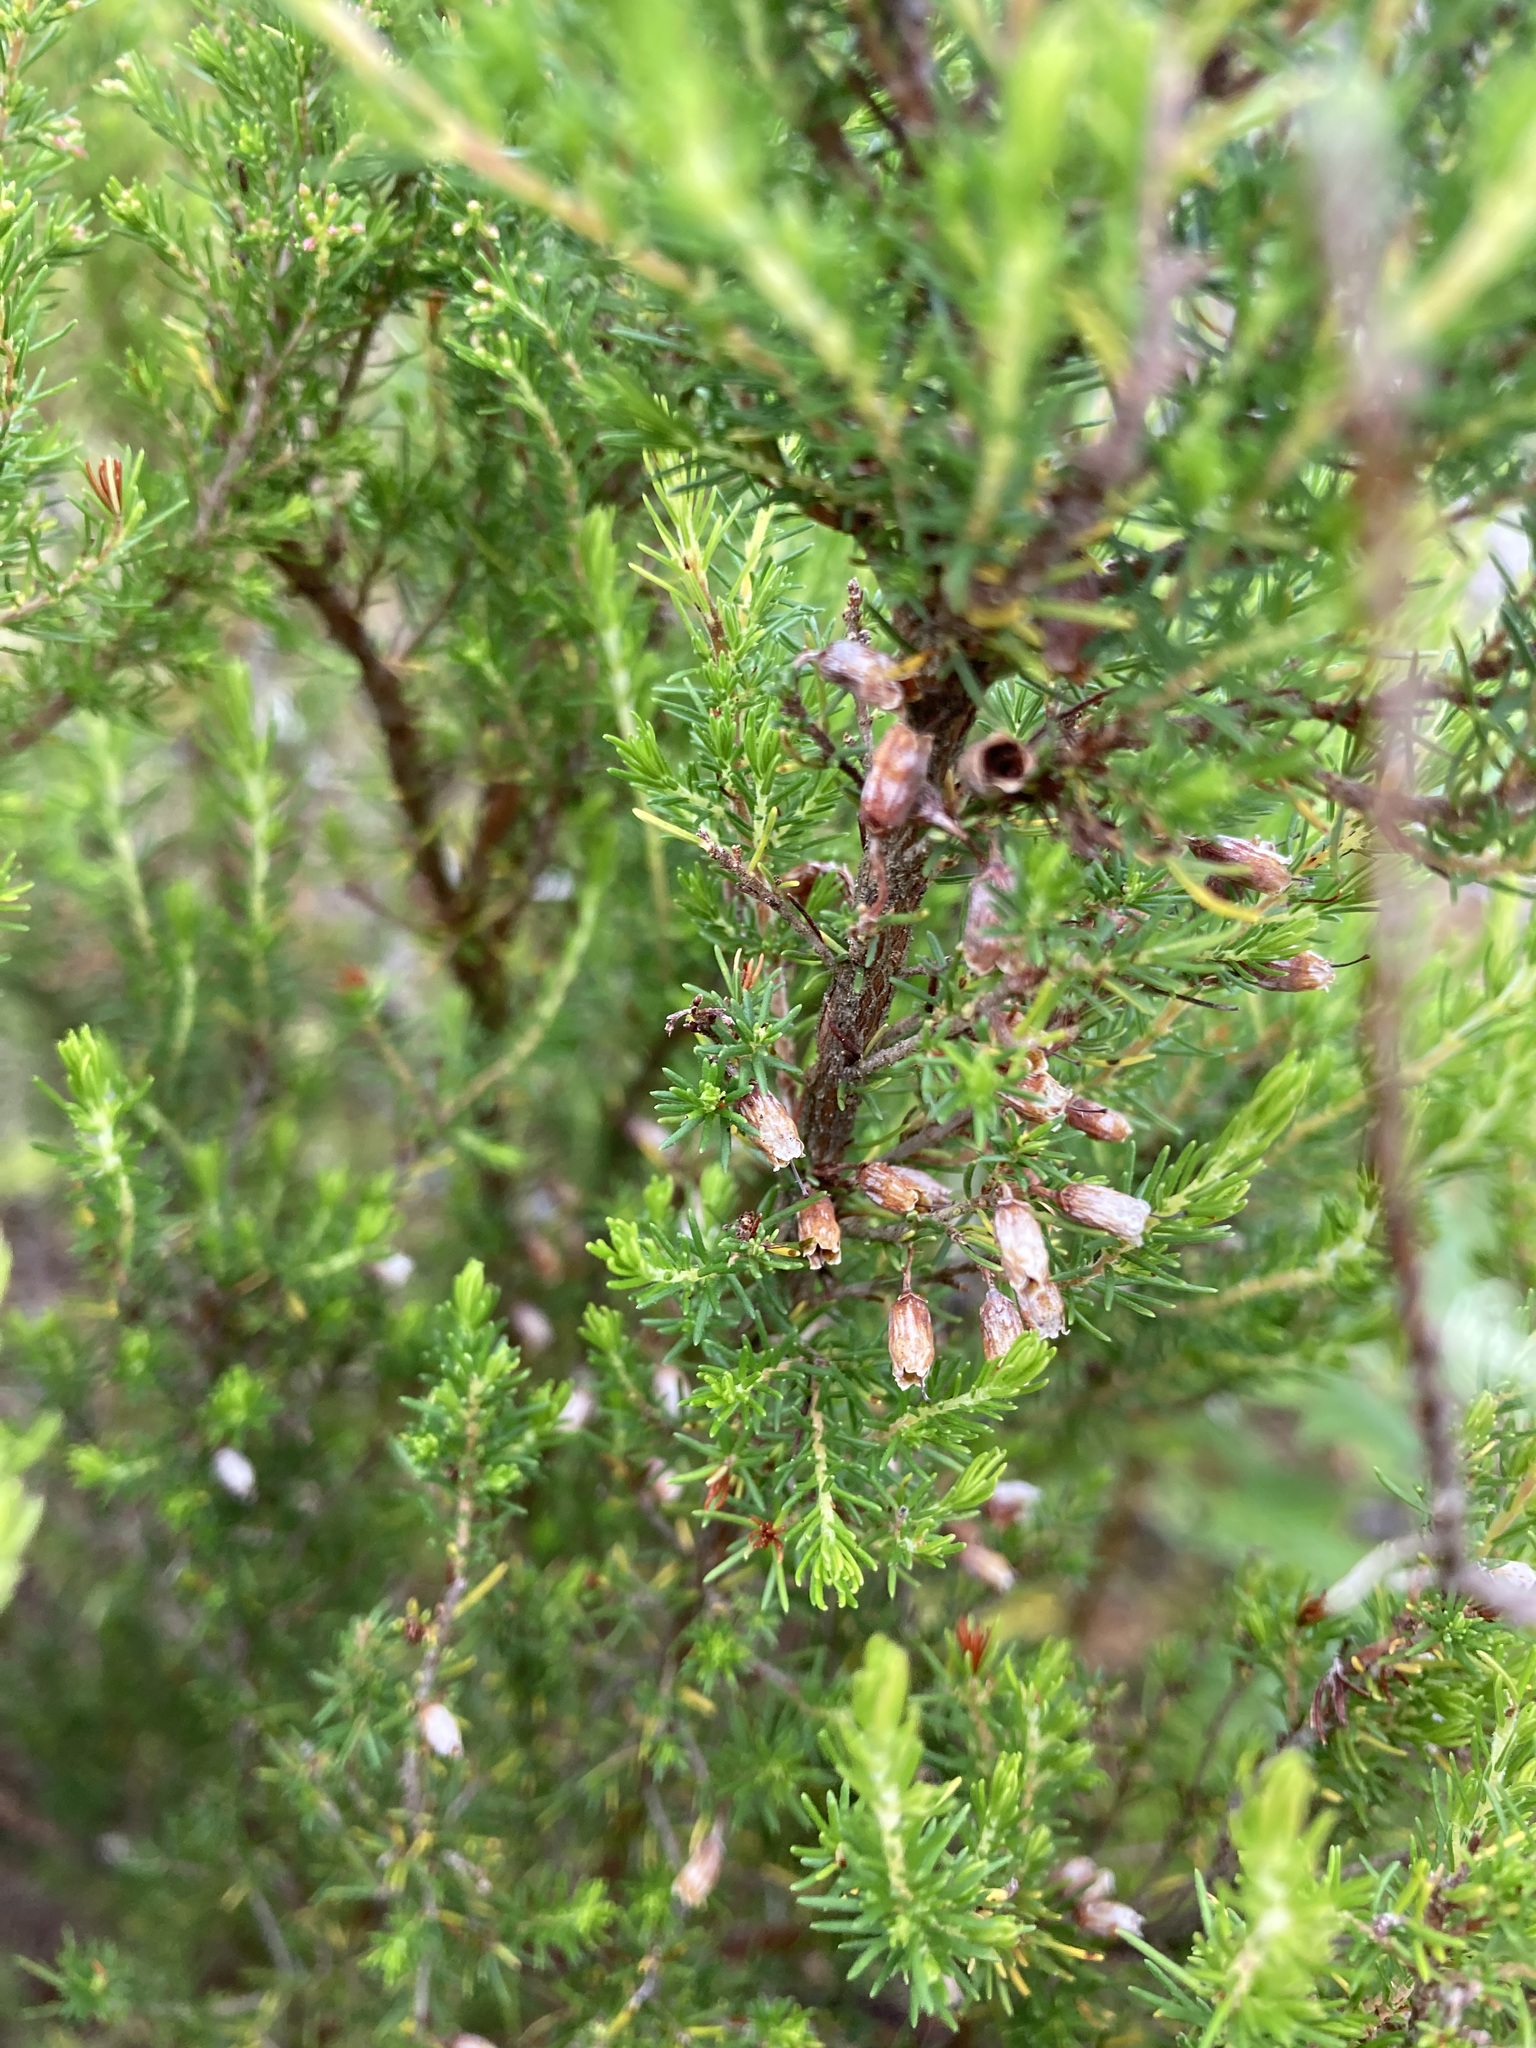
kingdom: Plantae
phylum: Tracheophyta
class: Magnoliopsida
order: Ericales
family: Ericaceae
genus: Erica
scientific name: Erica lusitanica
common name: Spanish heath
